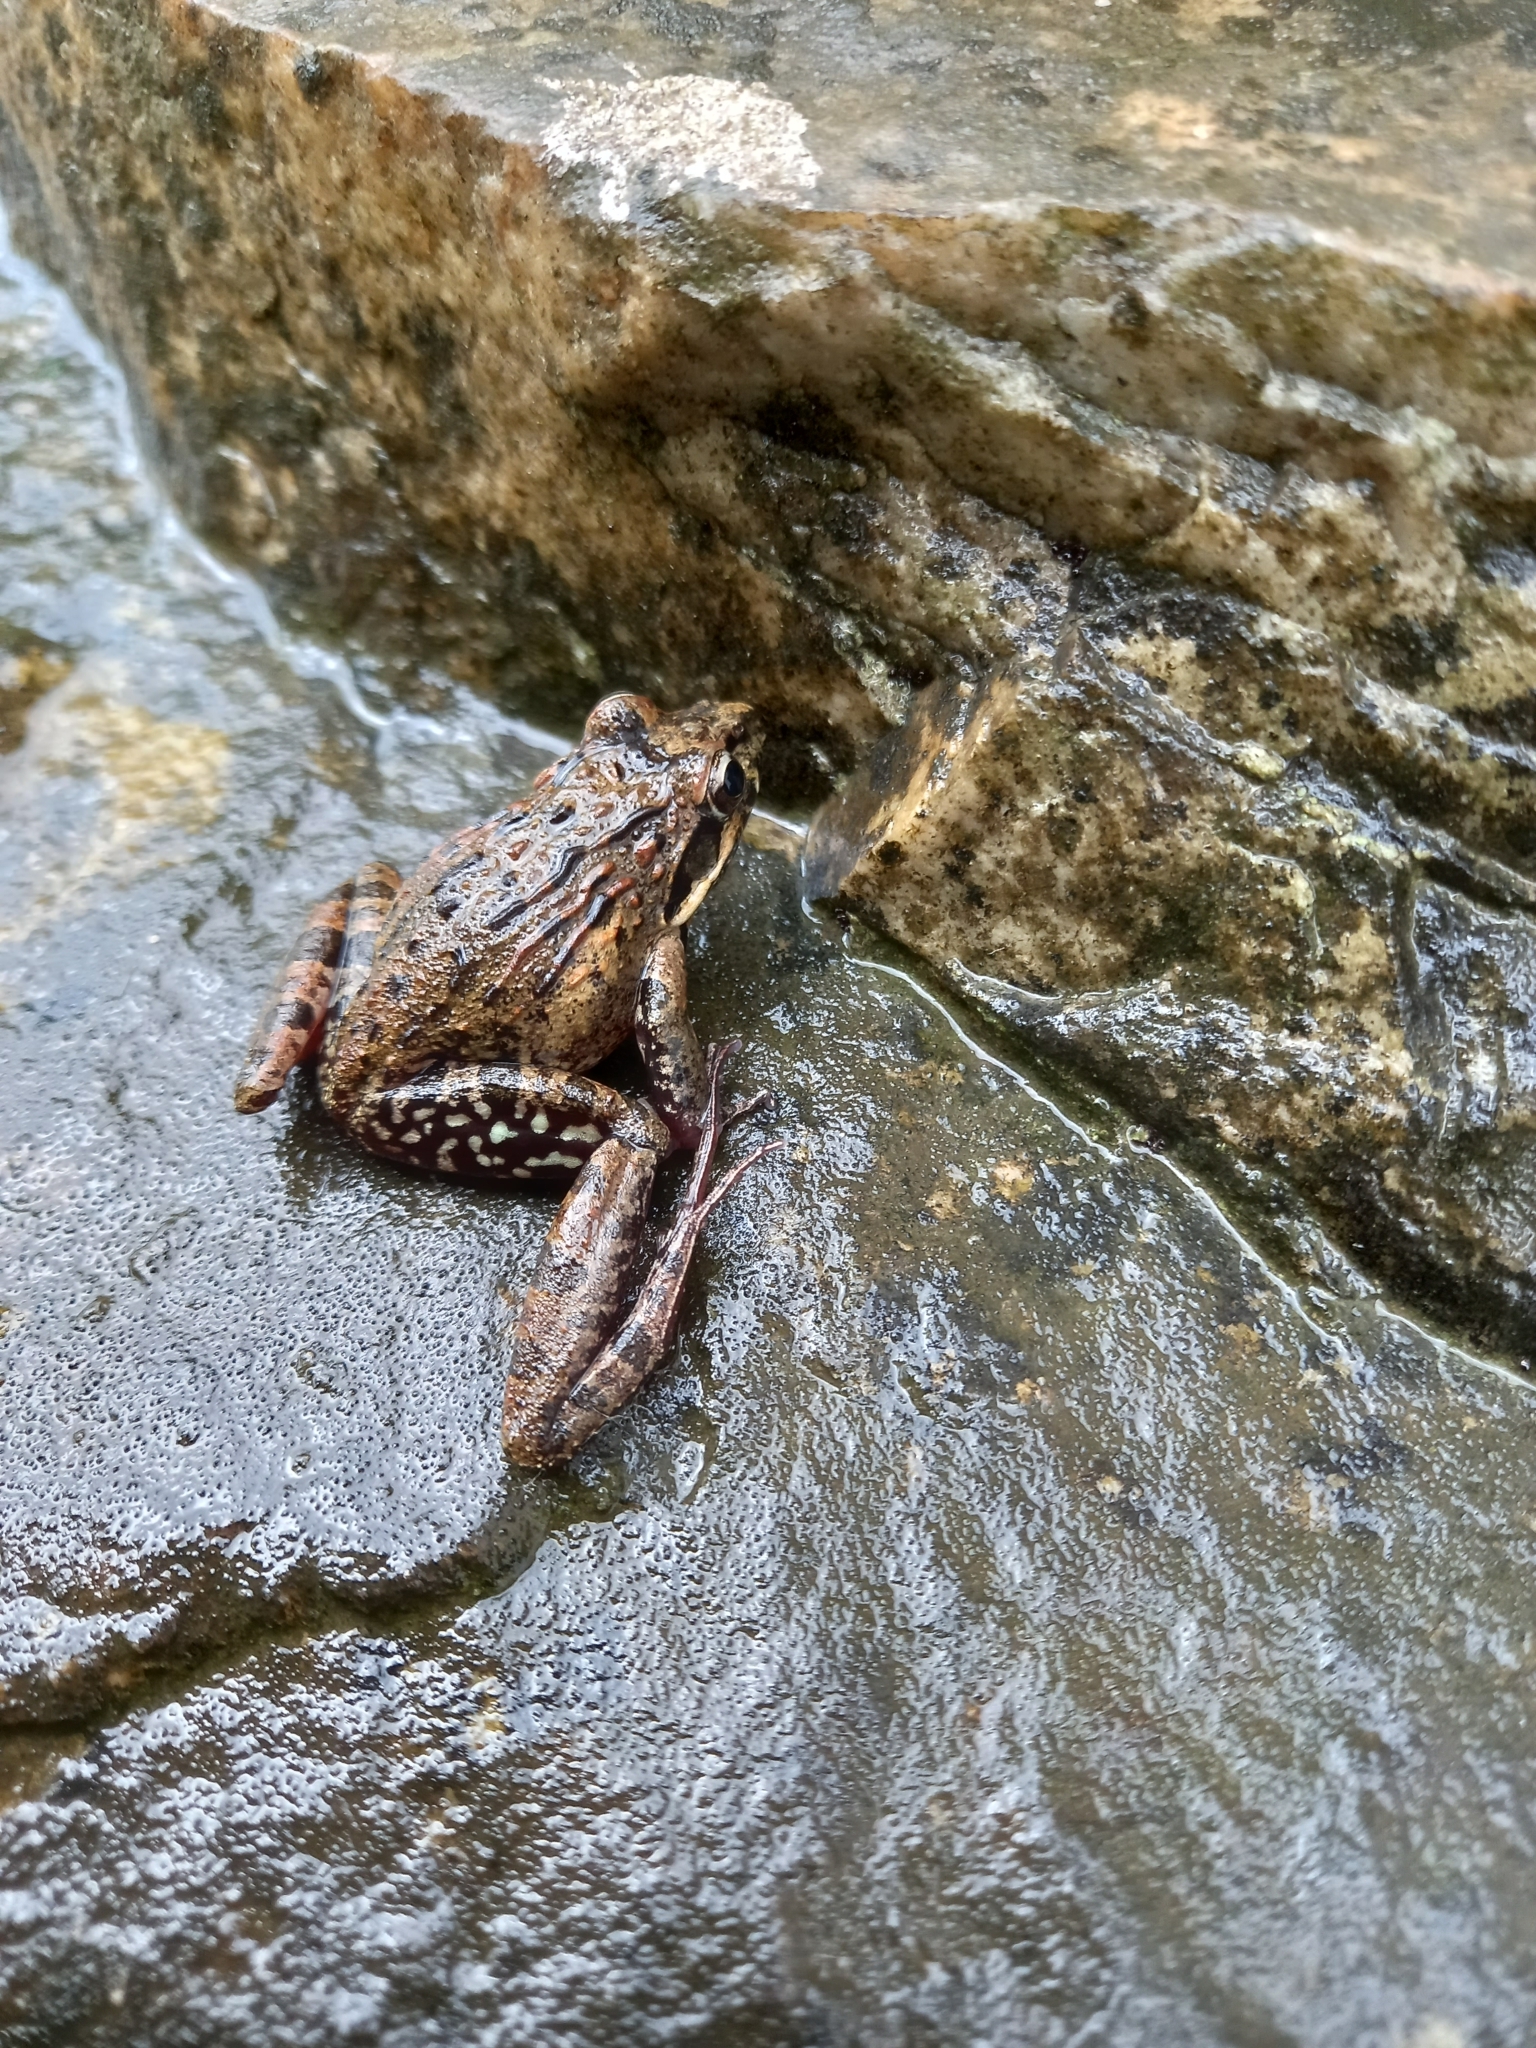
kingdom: Animalia
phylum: Chordata
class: Amphibia
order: Anura
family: Pyxicephalidae
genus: Strongylopus
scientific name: Strongylopus grayii
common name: Gray's stream frog
